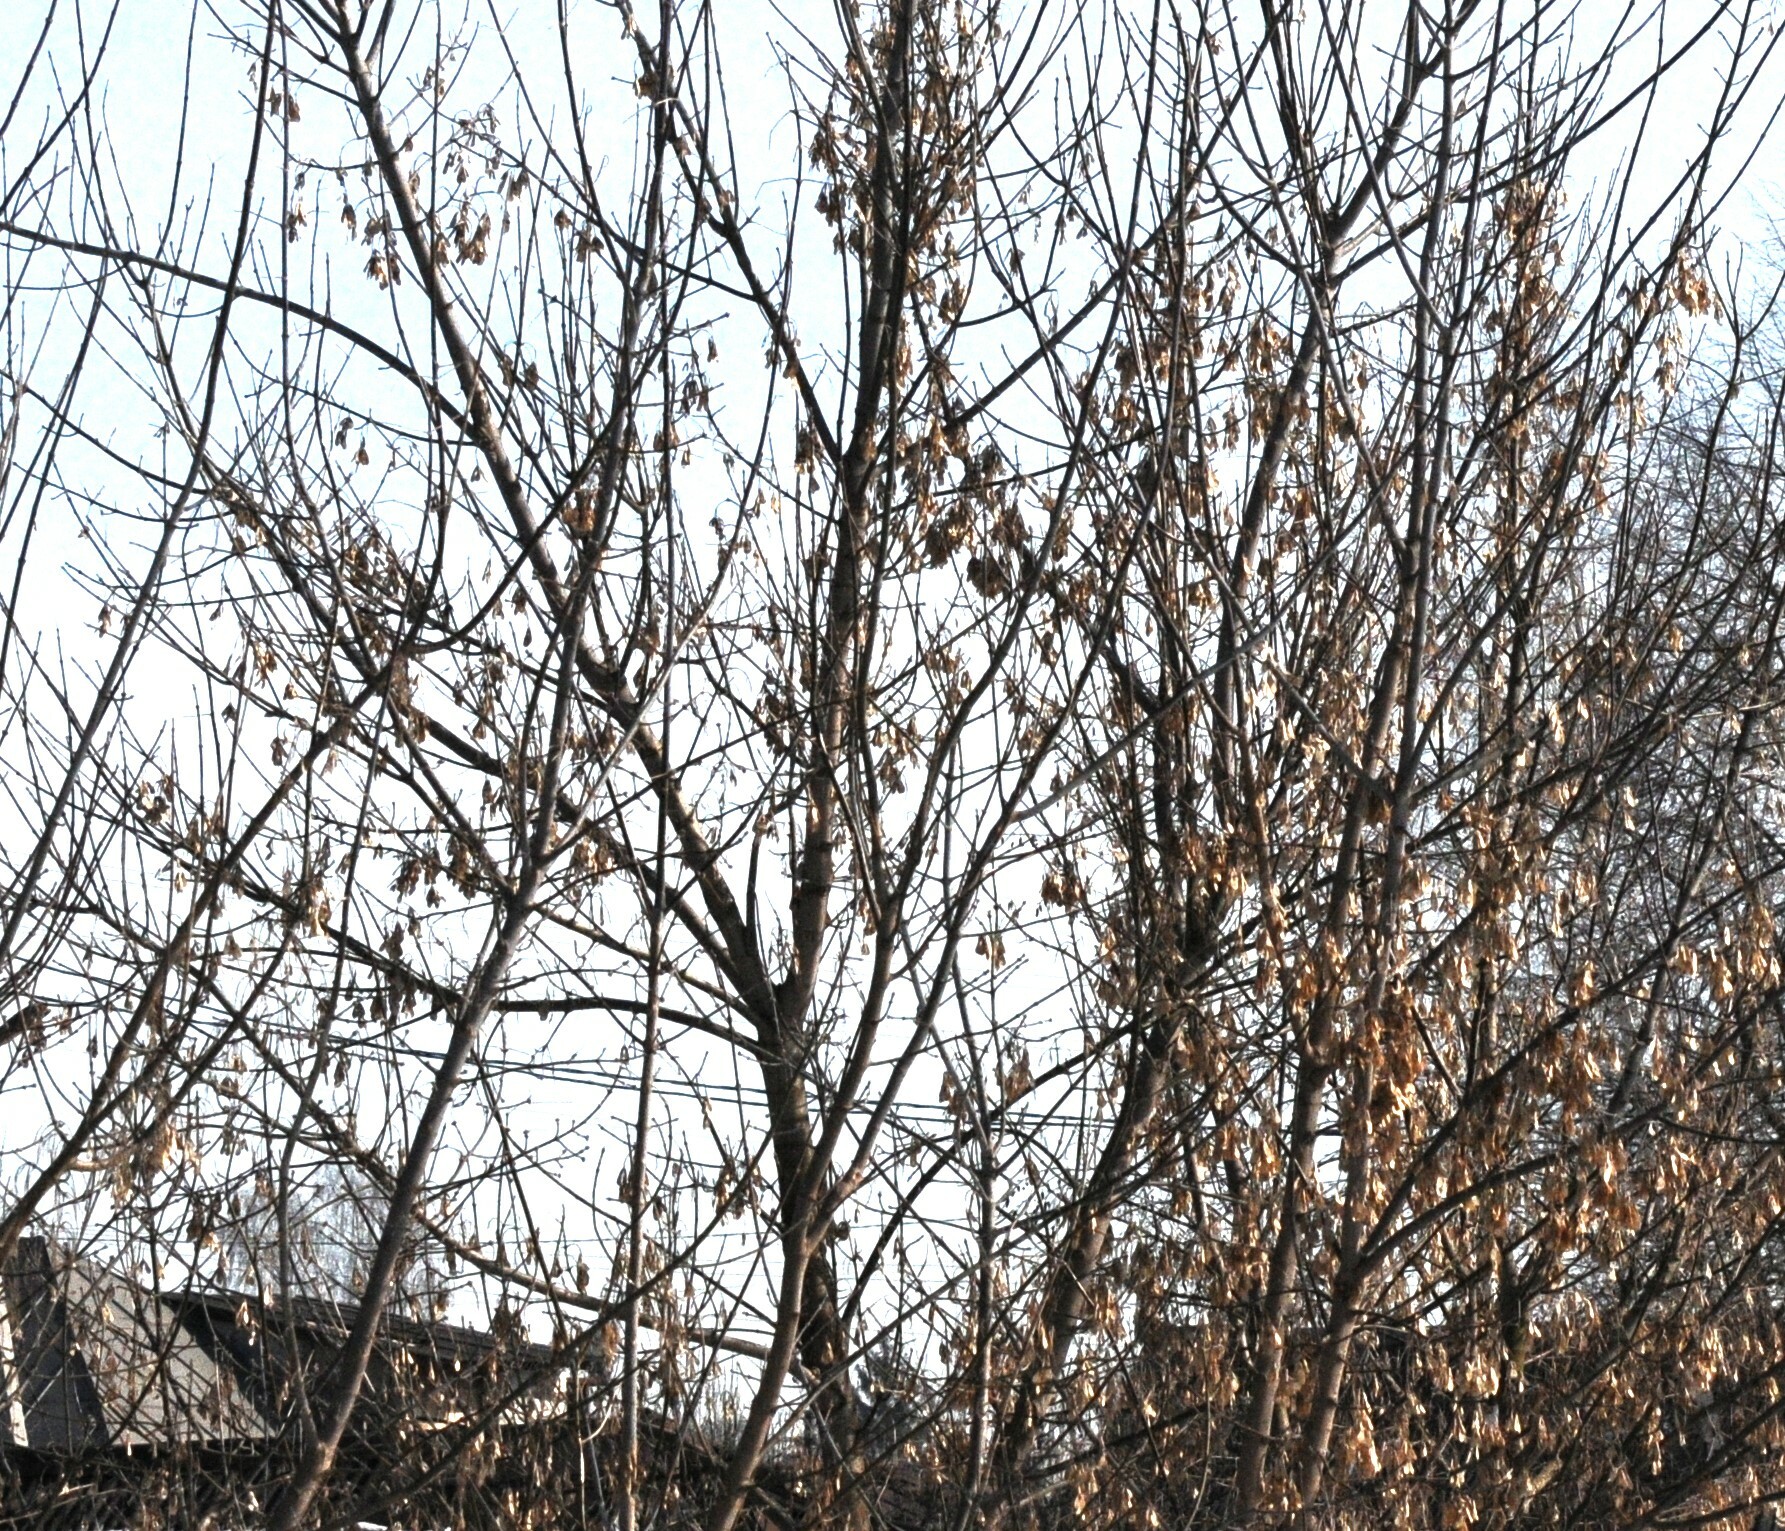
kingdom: Plantae
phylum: Tracheophyta
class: Magnoliopsida
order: Sapindales
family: Sapindaceae
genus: Acer
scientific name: Acer negundo
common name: Ashleaf maple
